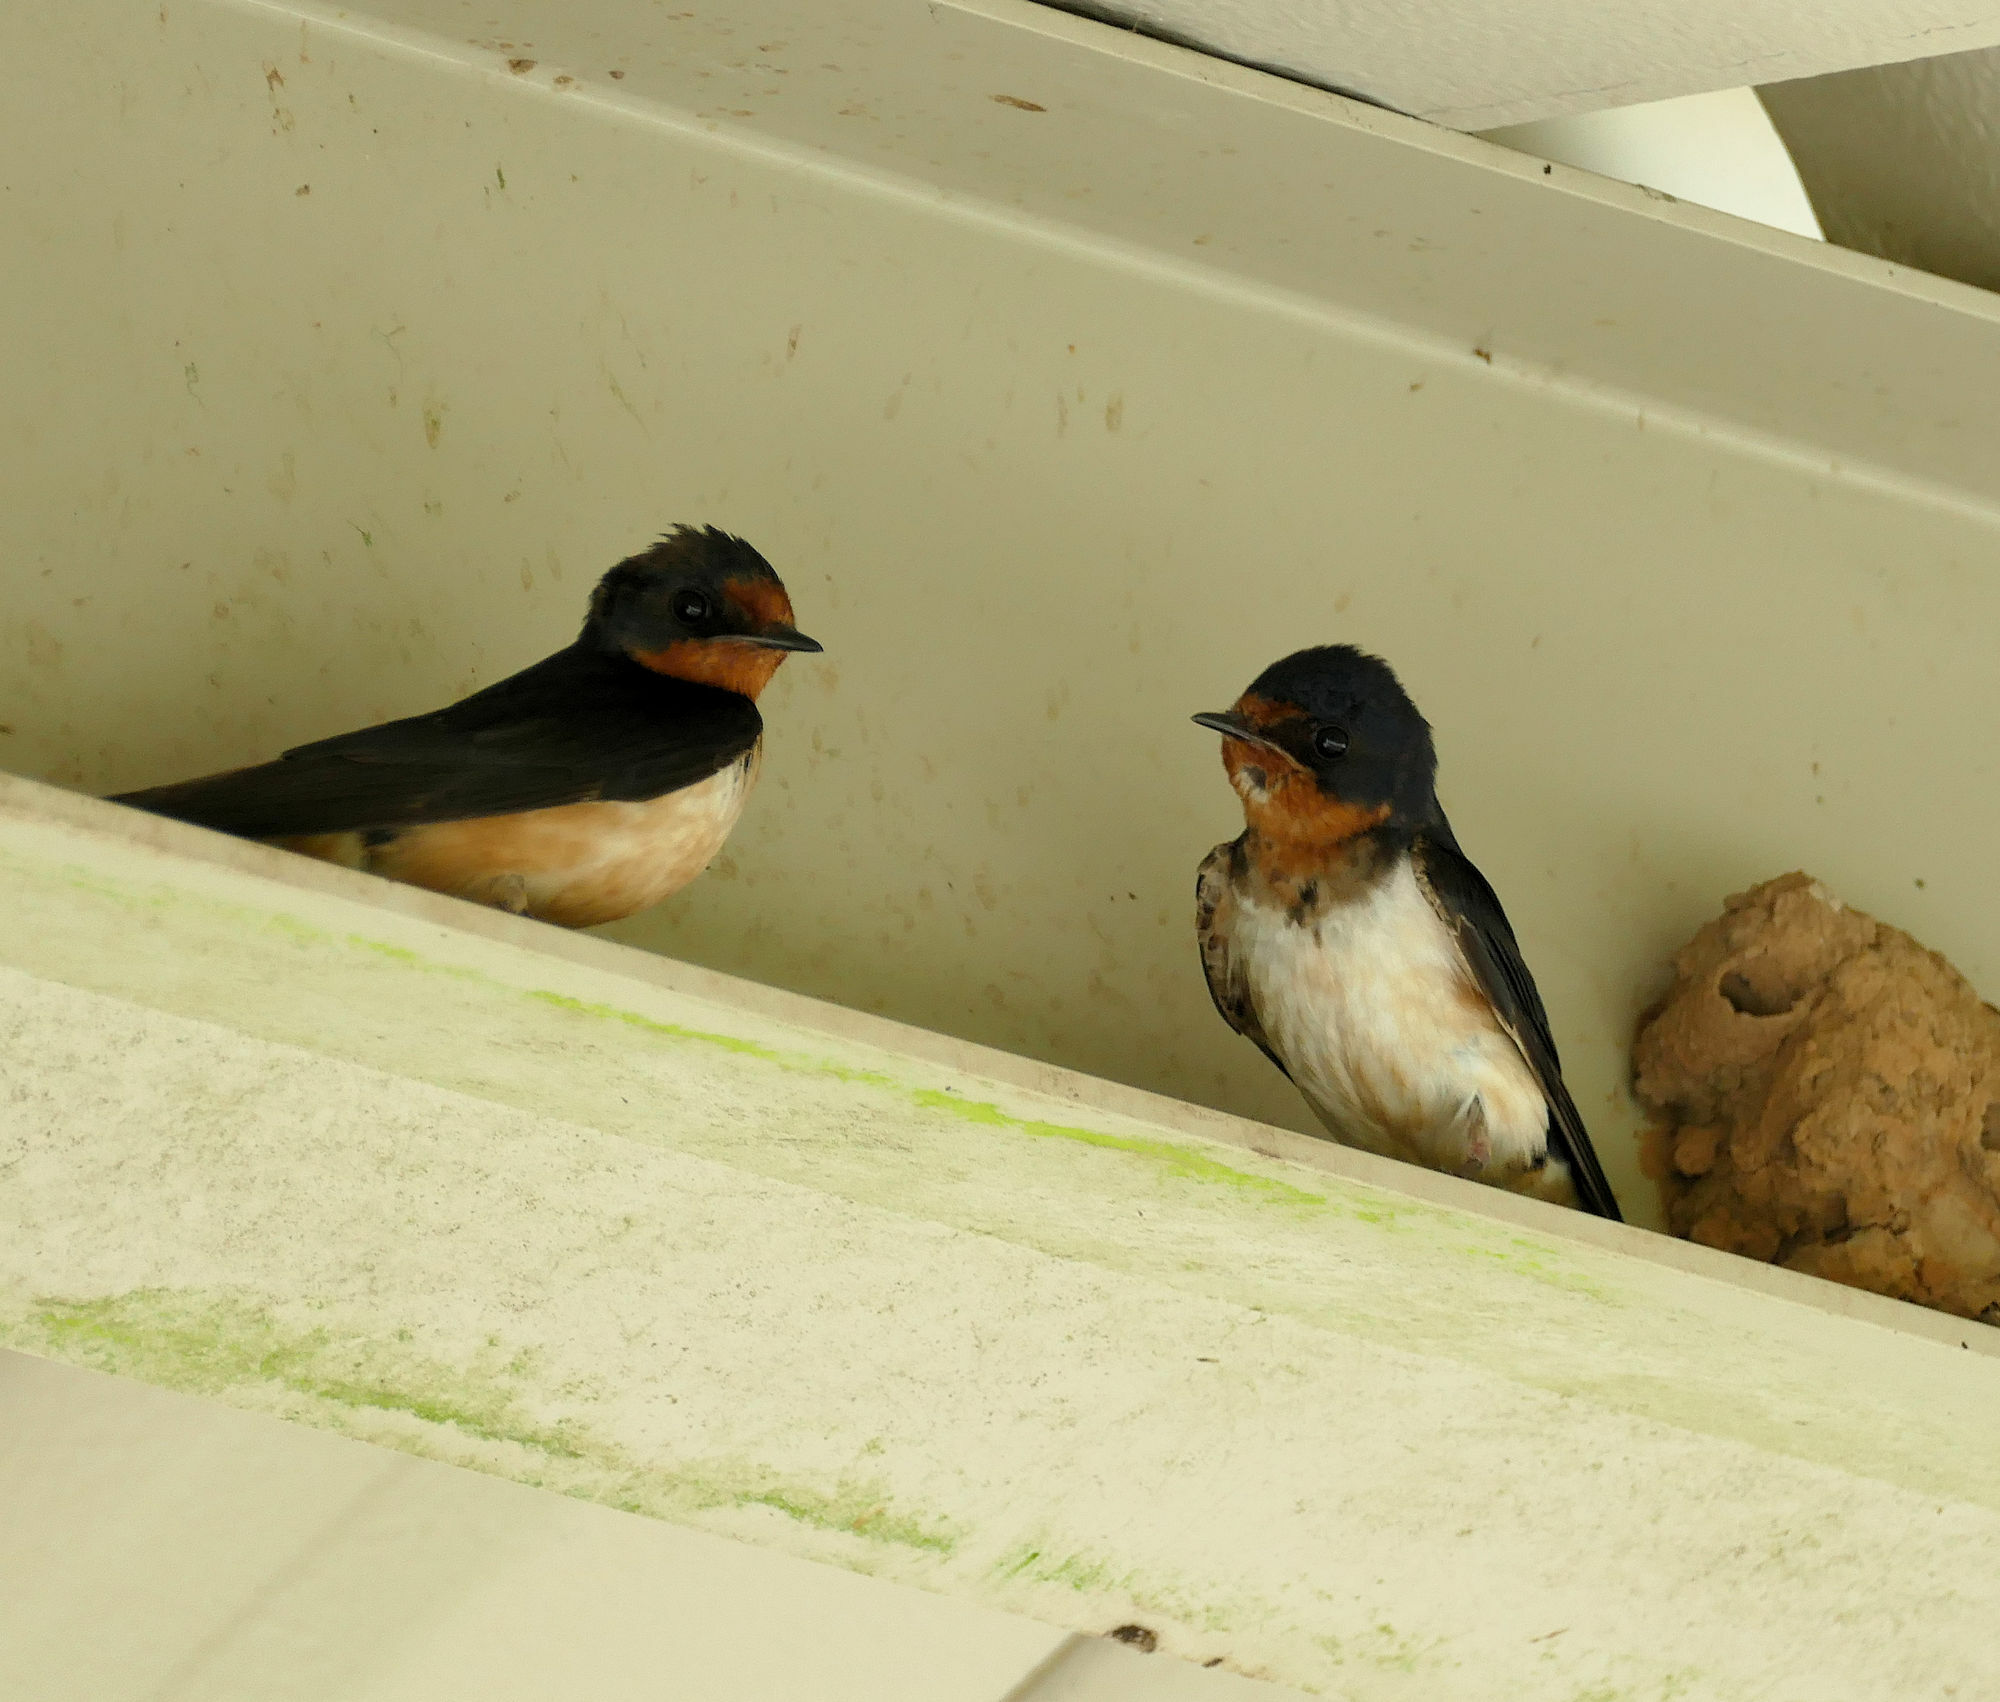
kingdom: Animalia
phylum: Chordata
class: Aves
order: Passeriformes
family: Hirundinidae
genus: Hirundo
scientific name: Hirundo rustica
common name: Barn swallow
